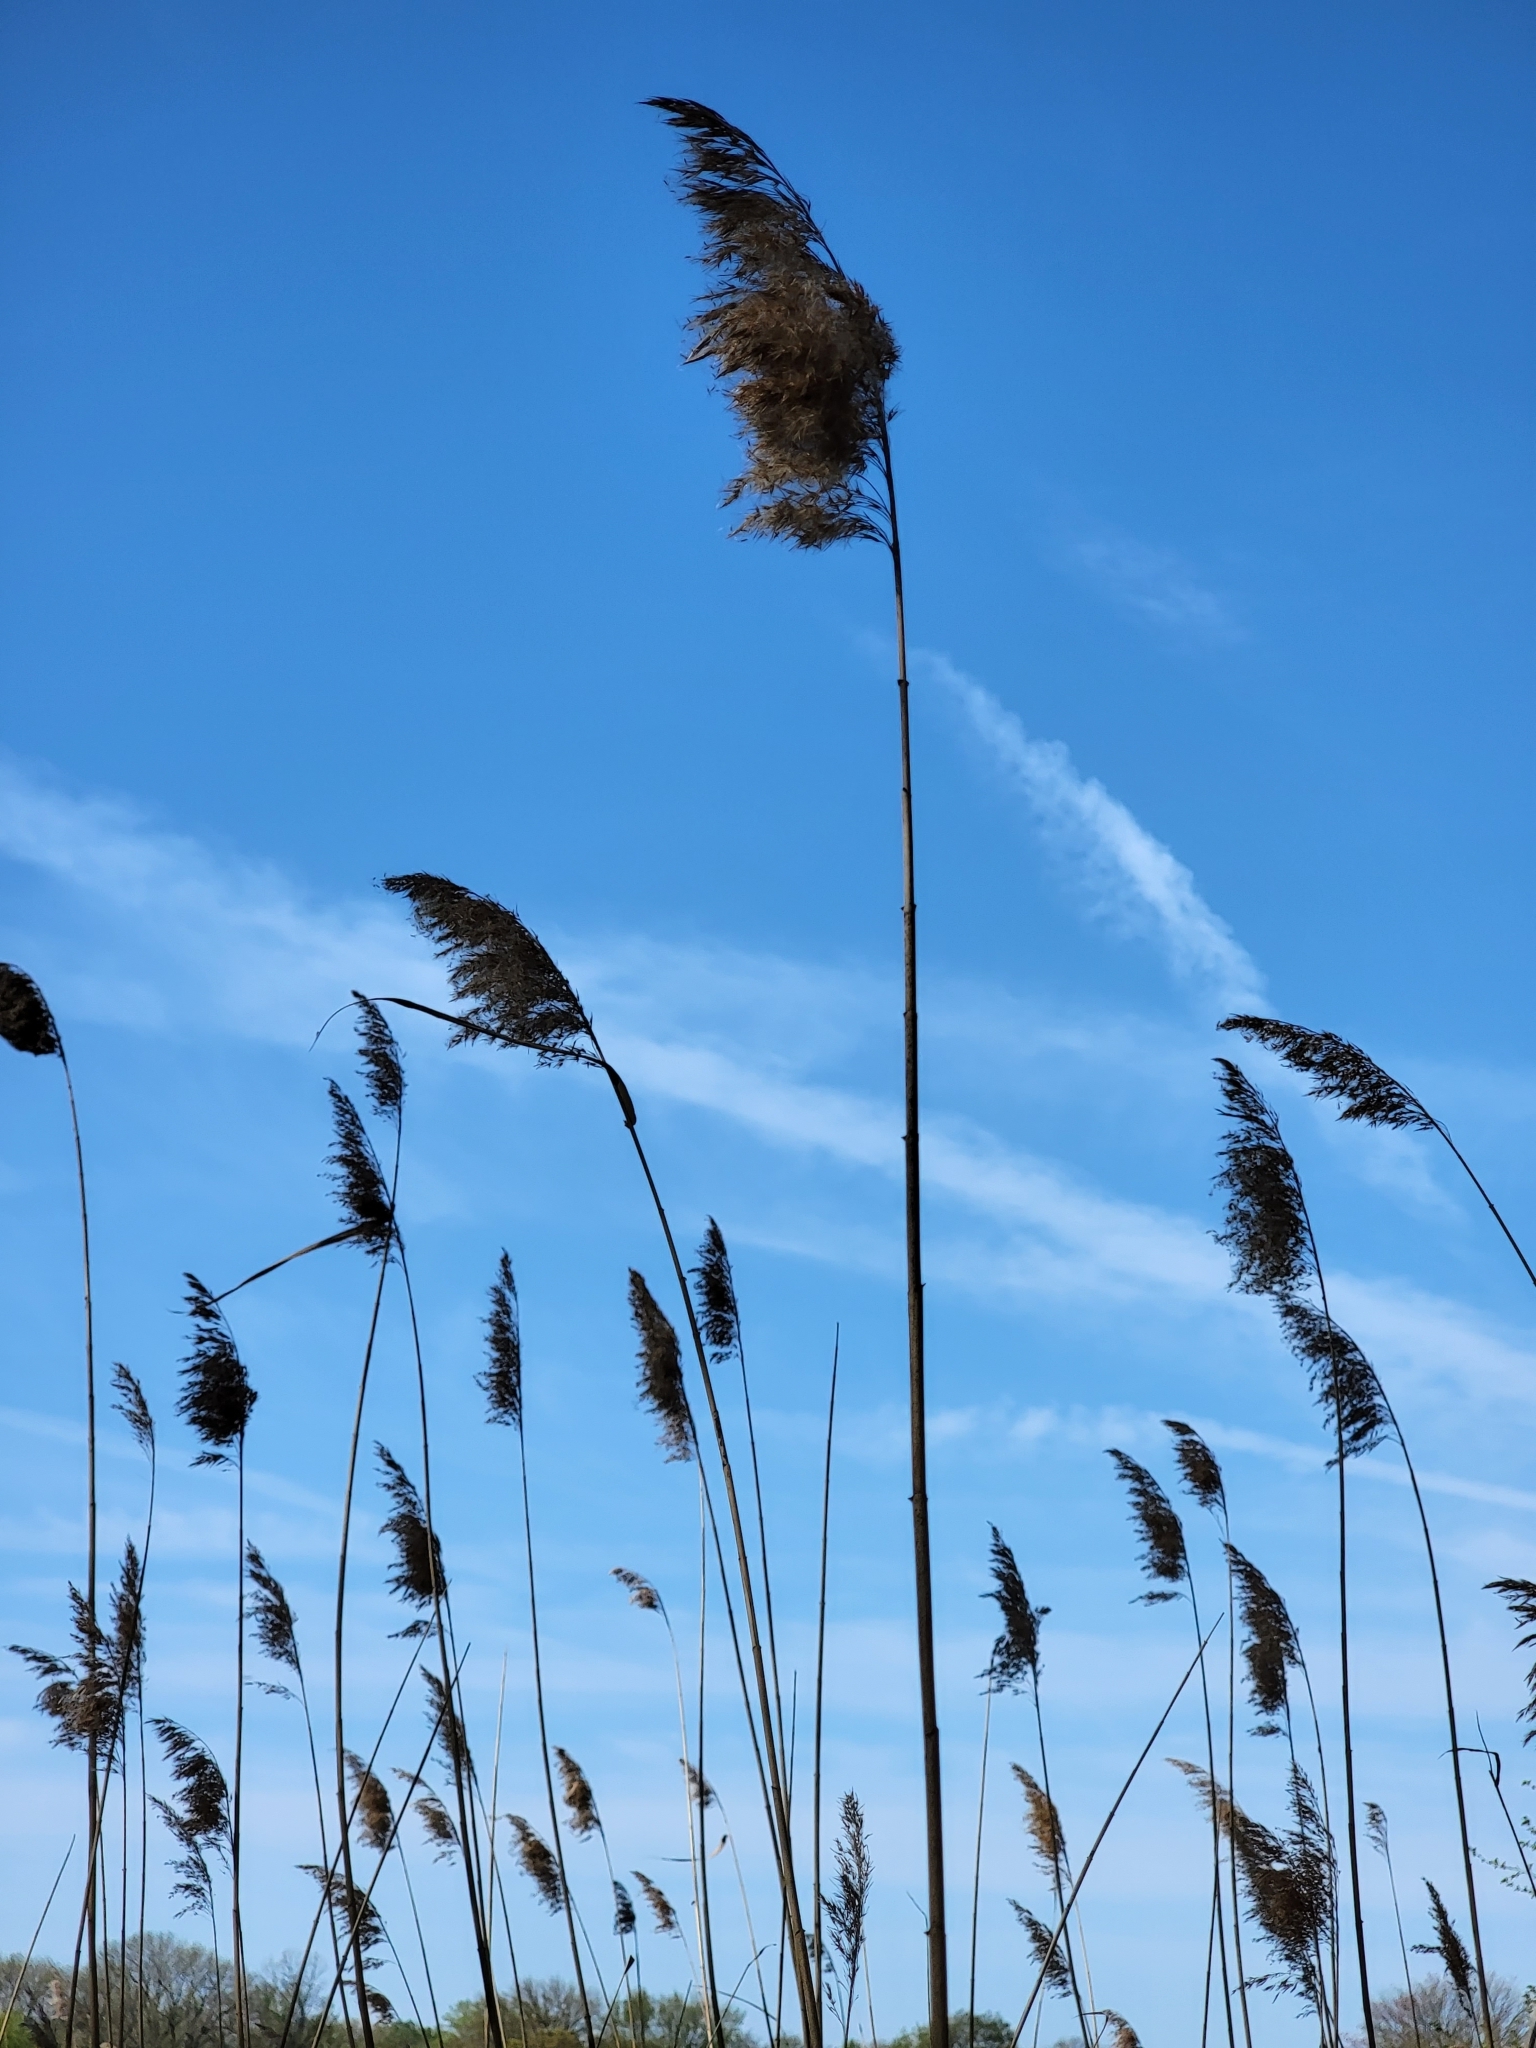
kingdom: Plantae
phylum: Tracheophyta
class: Liliopsida
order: Poales
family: Poaceae
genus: Phragmites
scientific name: Phragmites australis
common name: Common reed
